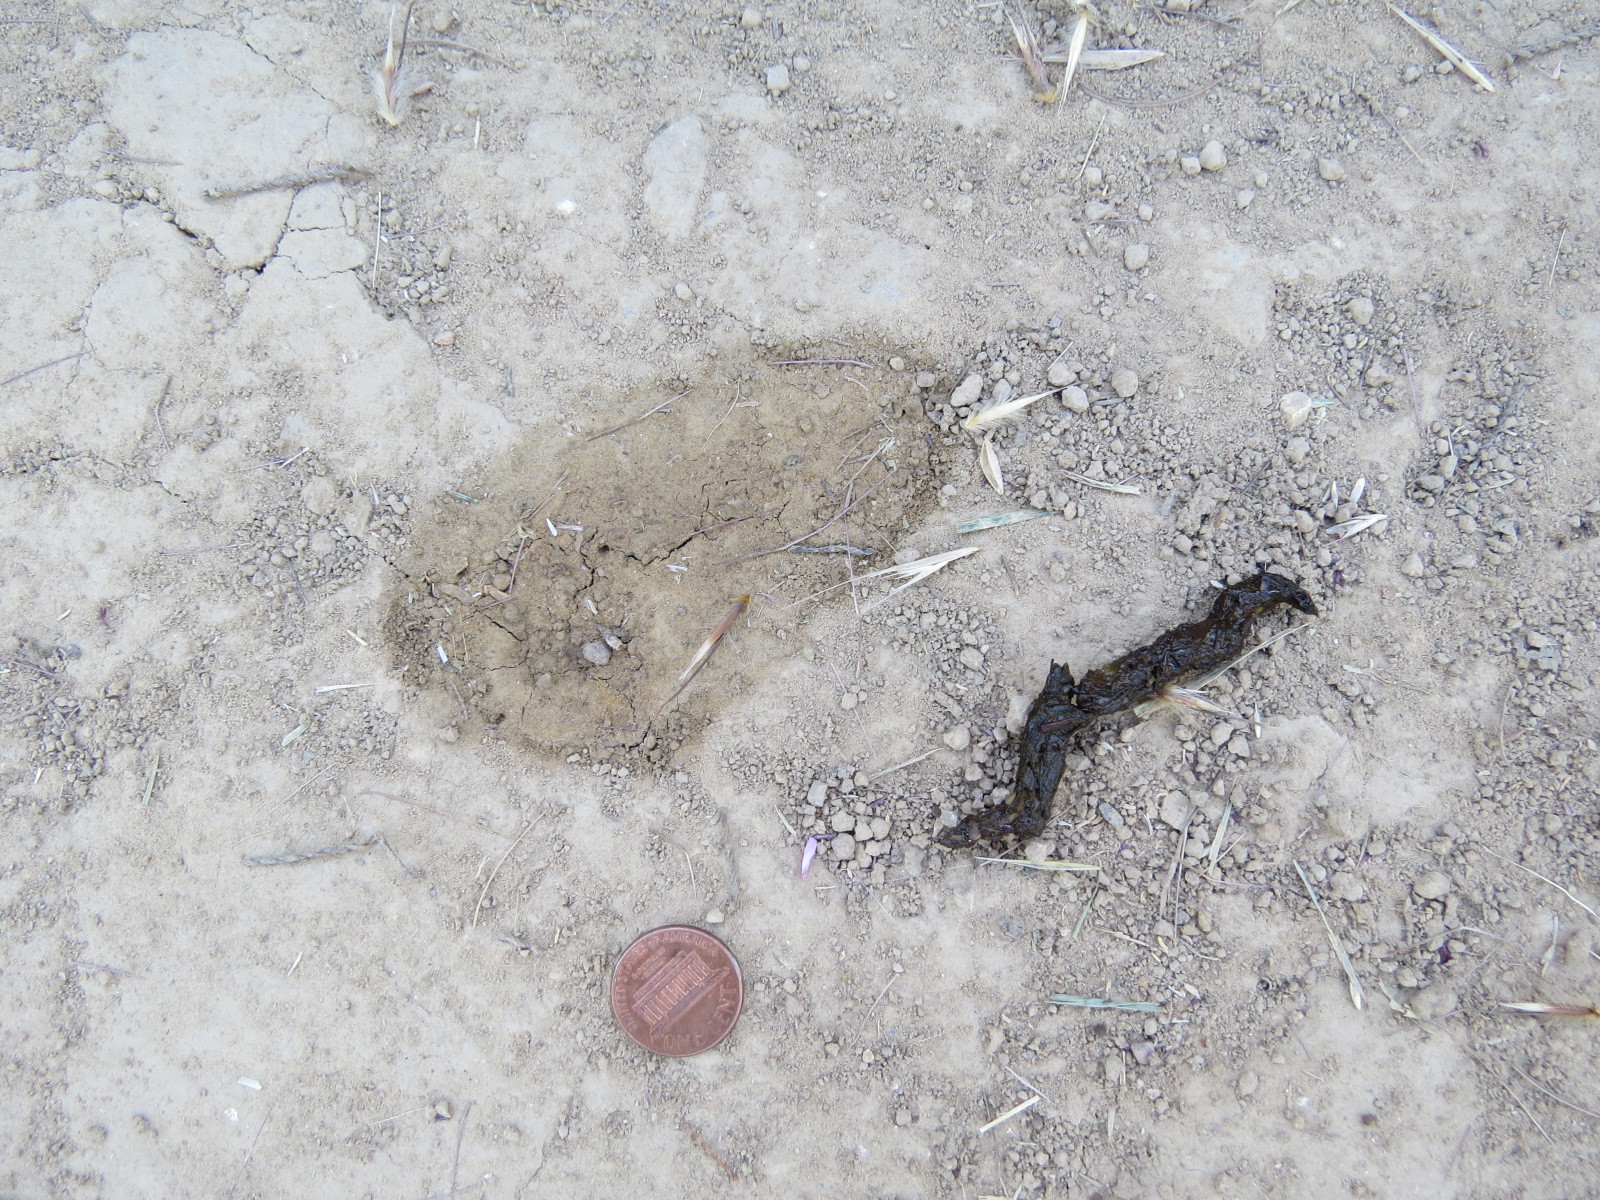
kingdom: Animalia
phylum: Chordata
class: Mammalia
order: Carnivora
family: Mustelidae
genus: Mustela
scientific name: Mustela
